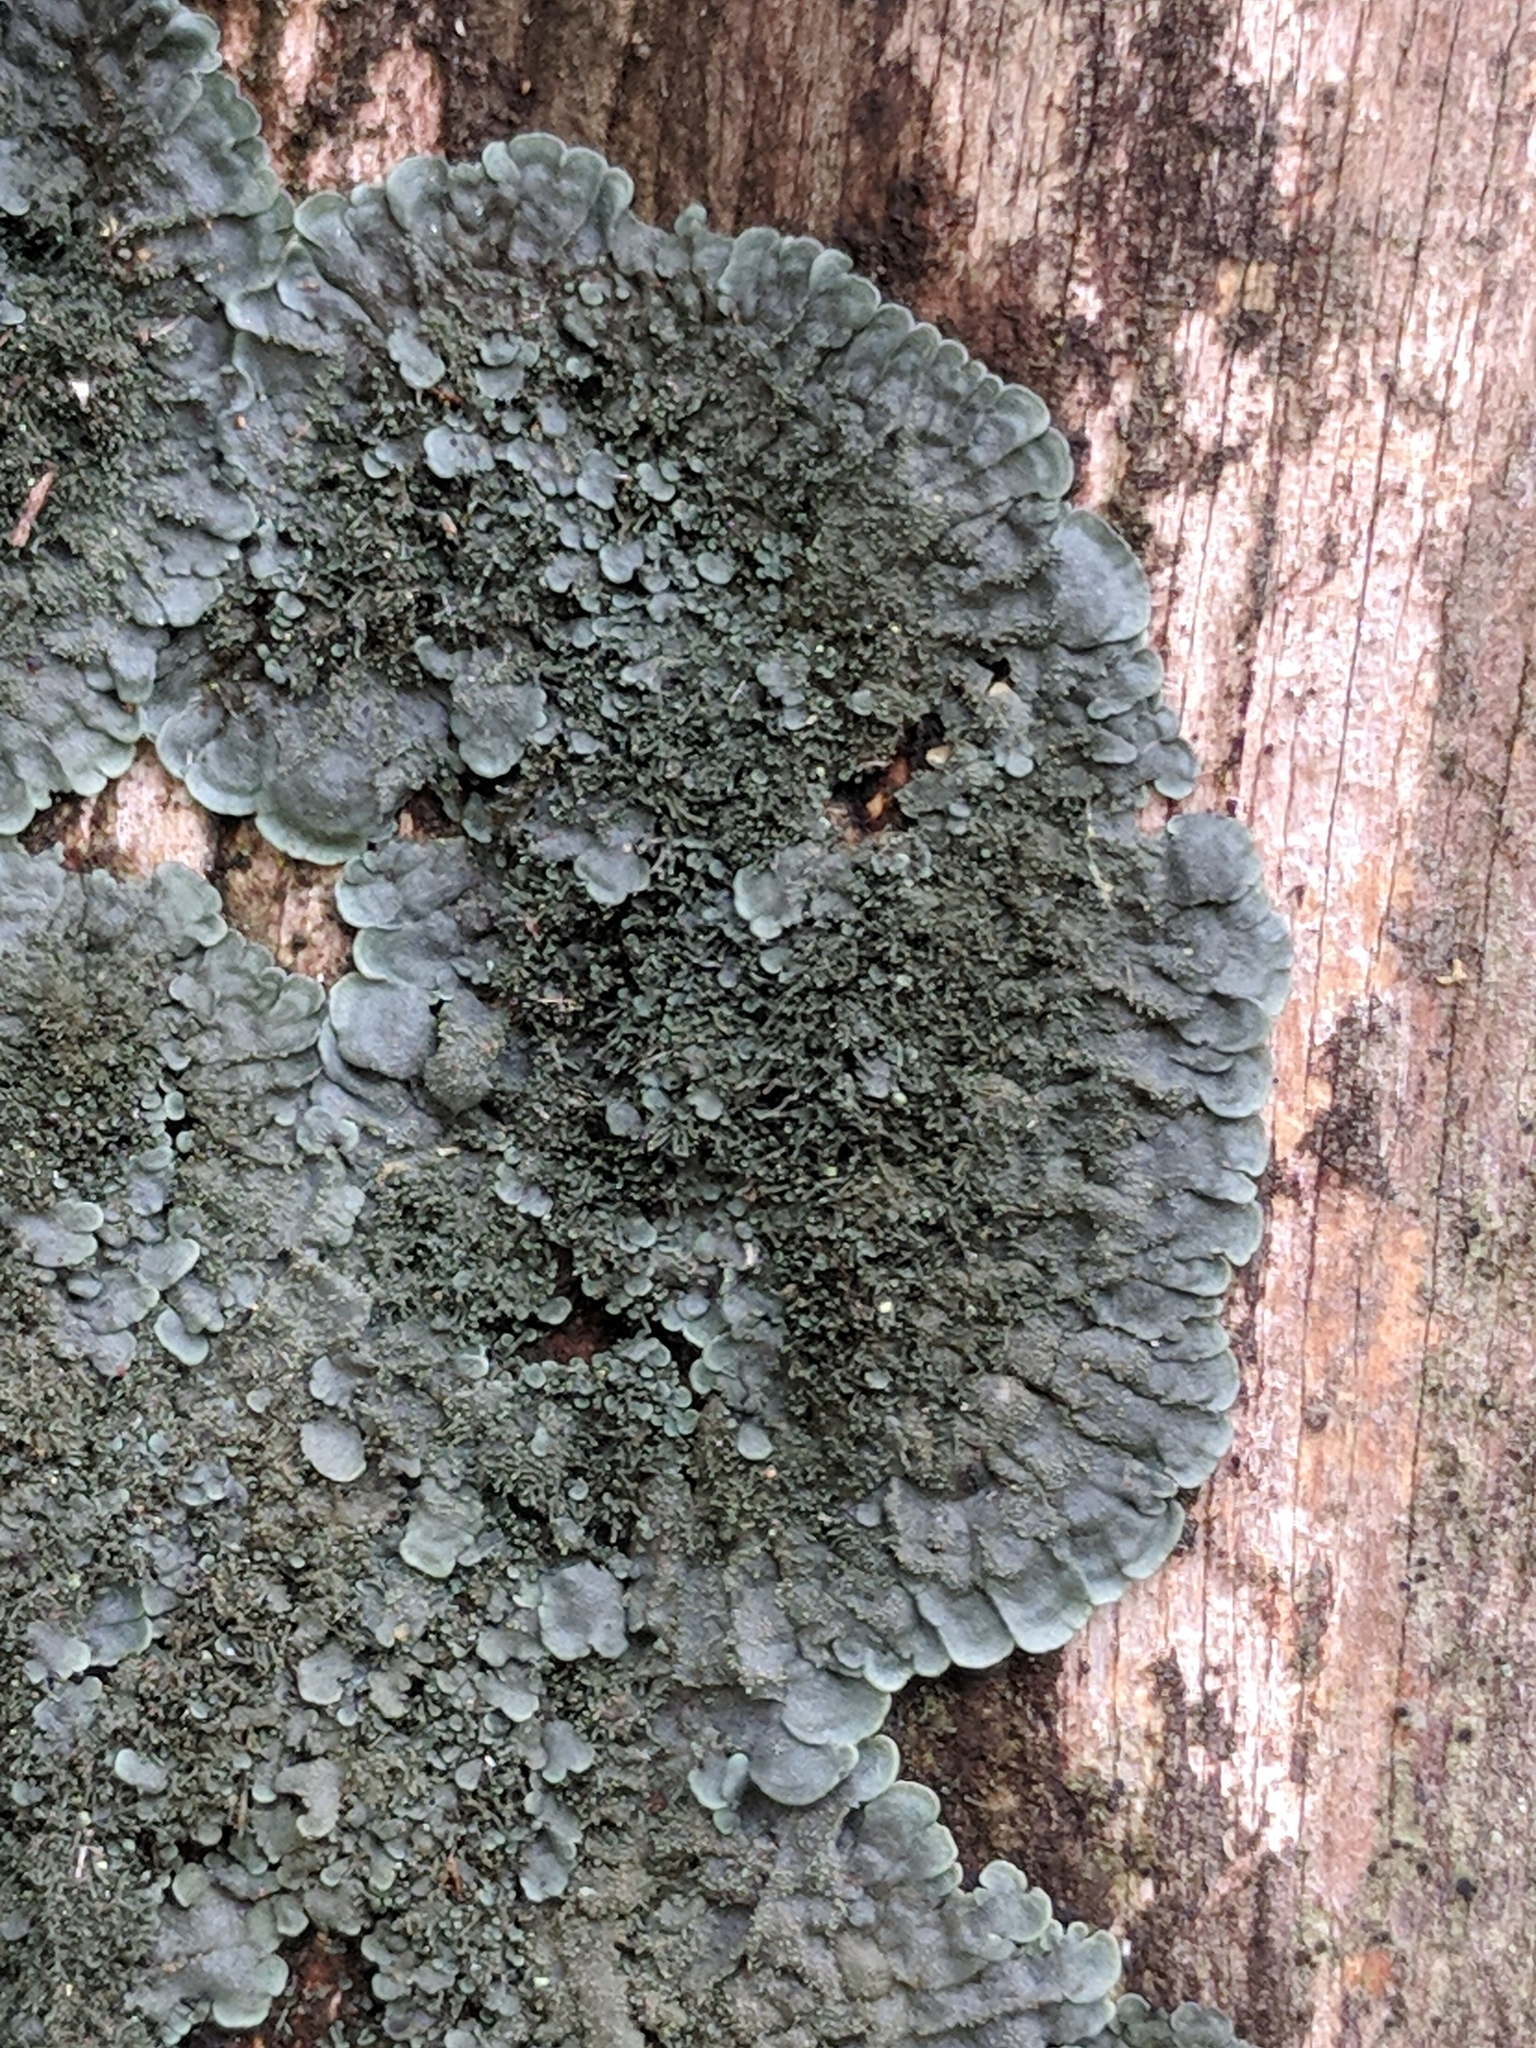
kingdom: Fungi
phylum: Ascomycota
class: Lecanoromycetes
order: Peltigerales
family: Coccocarpiaceae
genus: Coccocarpia
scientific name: Coccocarpia palmicola
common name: Salted shell lichen
